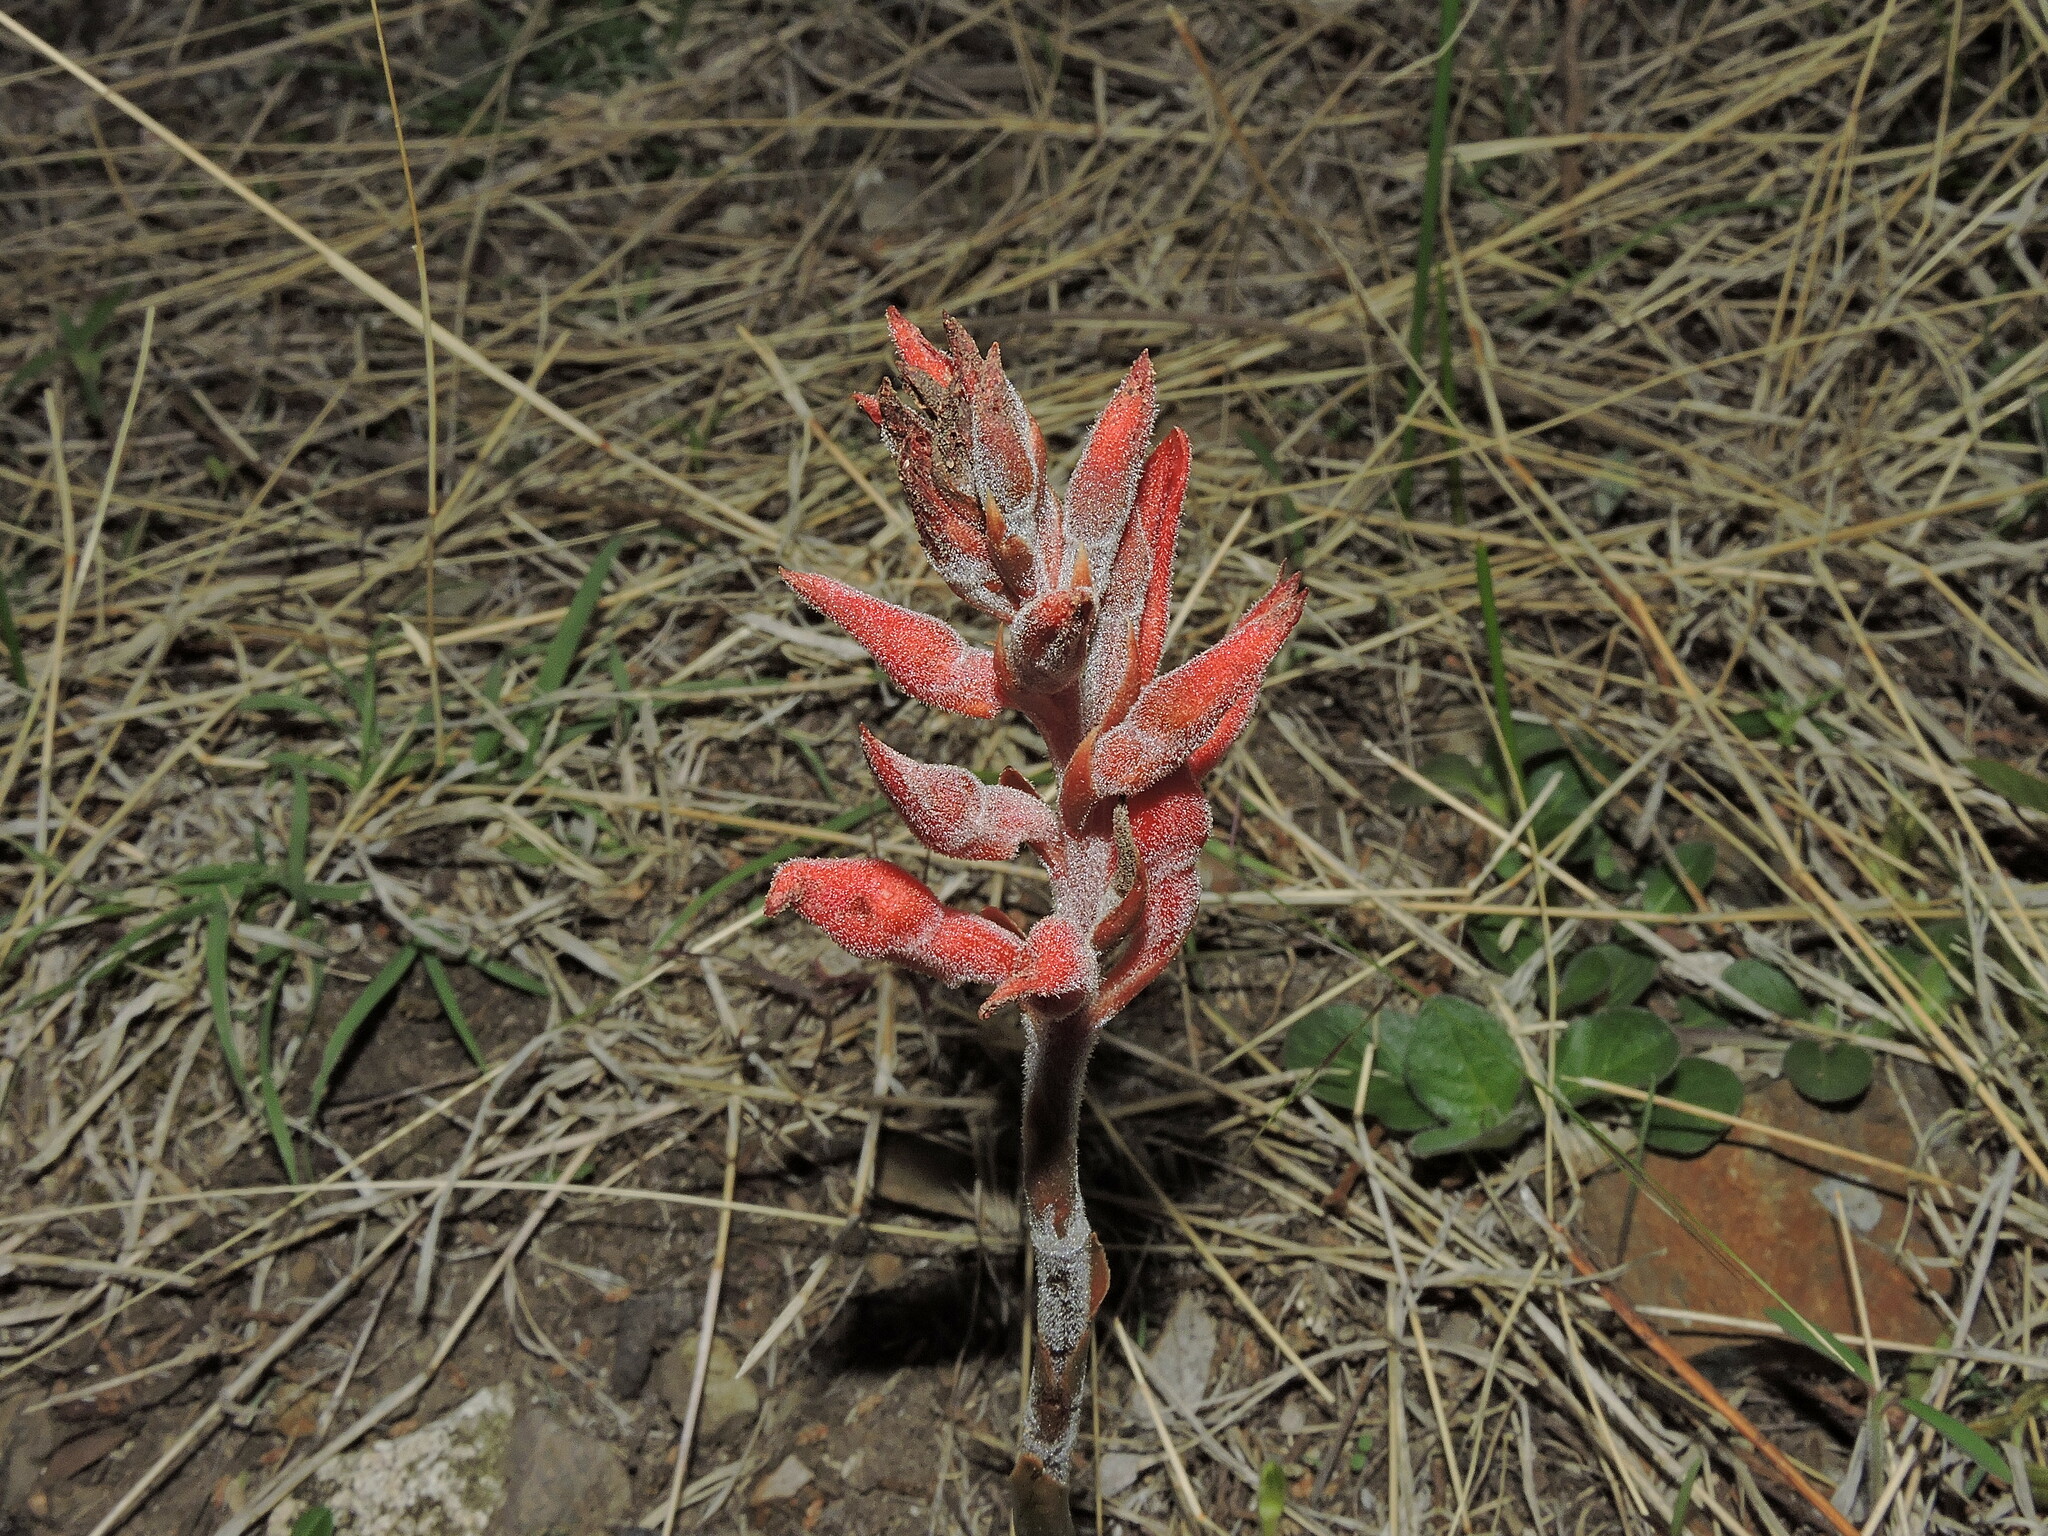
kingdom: Plantae
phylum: Tracheophyta
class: Liliopsida
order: Asparagales
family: Orchidaceae
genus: Sacoila
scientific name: Sacoila lanceolata
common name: Leafless beaked ladiestresses
